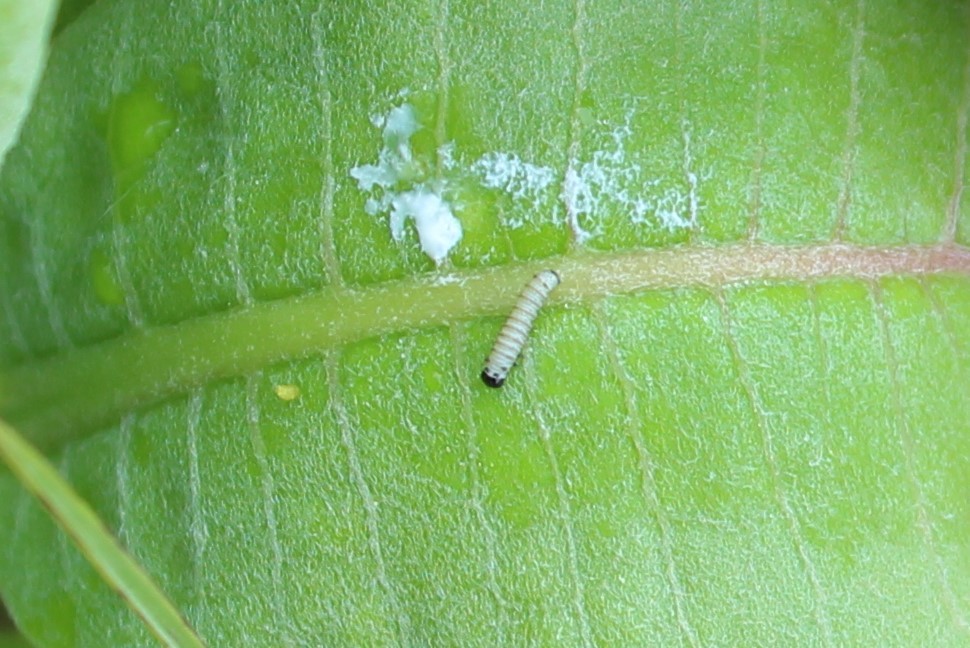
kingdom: Animalia
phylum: Arthropoda
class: Insecta
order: Lepidoptera
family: Nymphalidae
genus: Danaus
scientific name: Danaus plexippus
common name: Monarch
